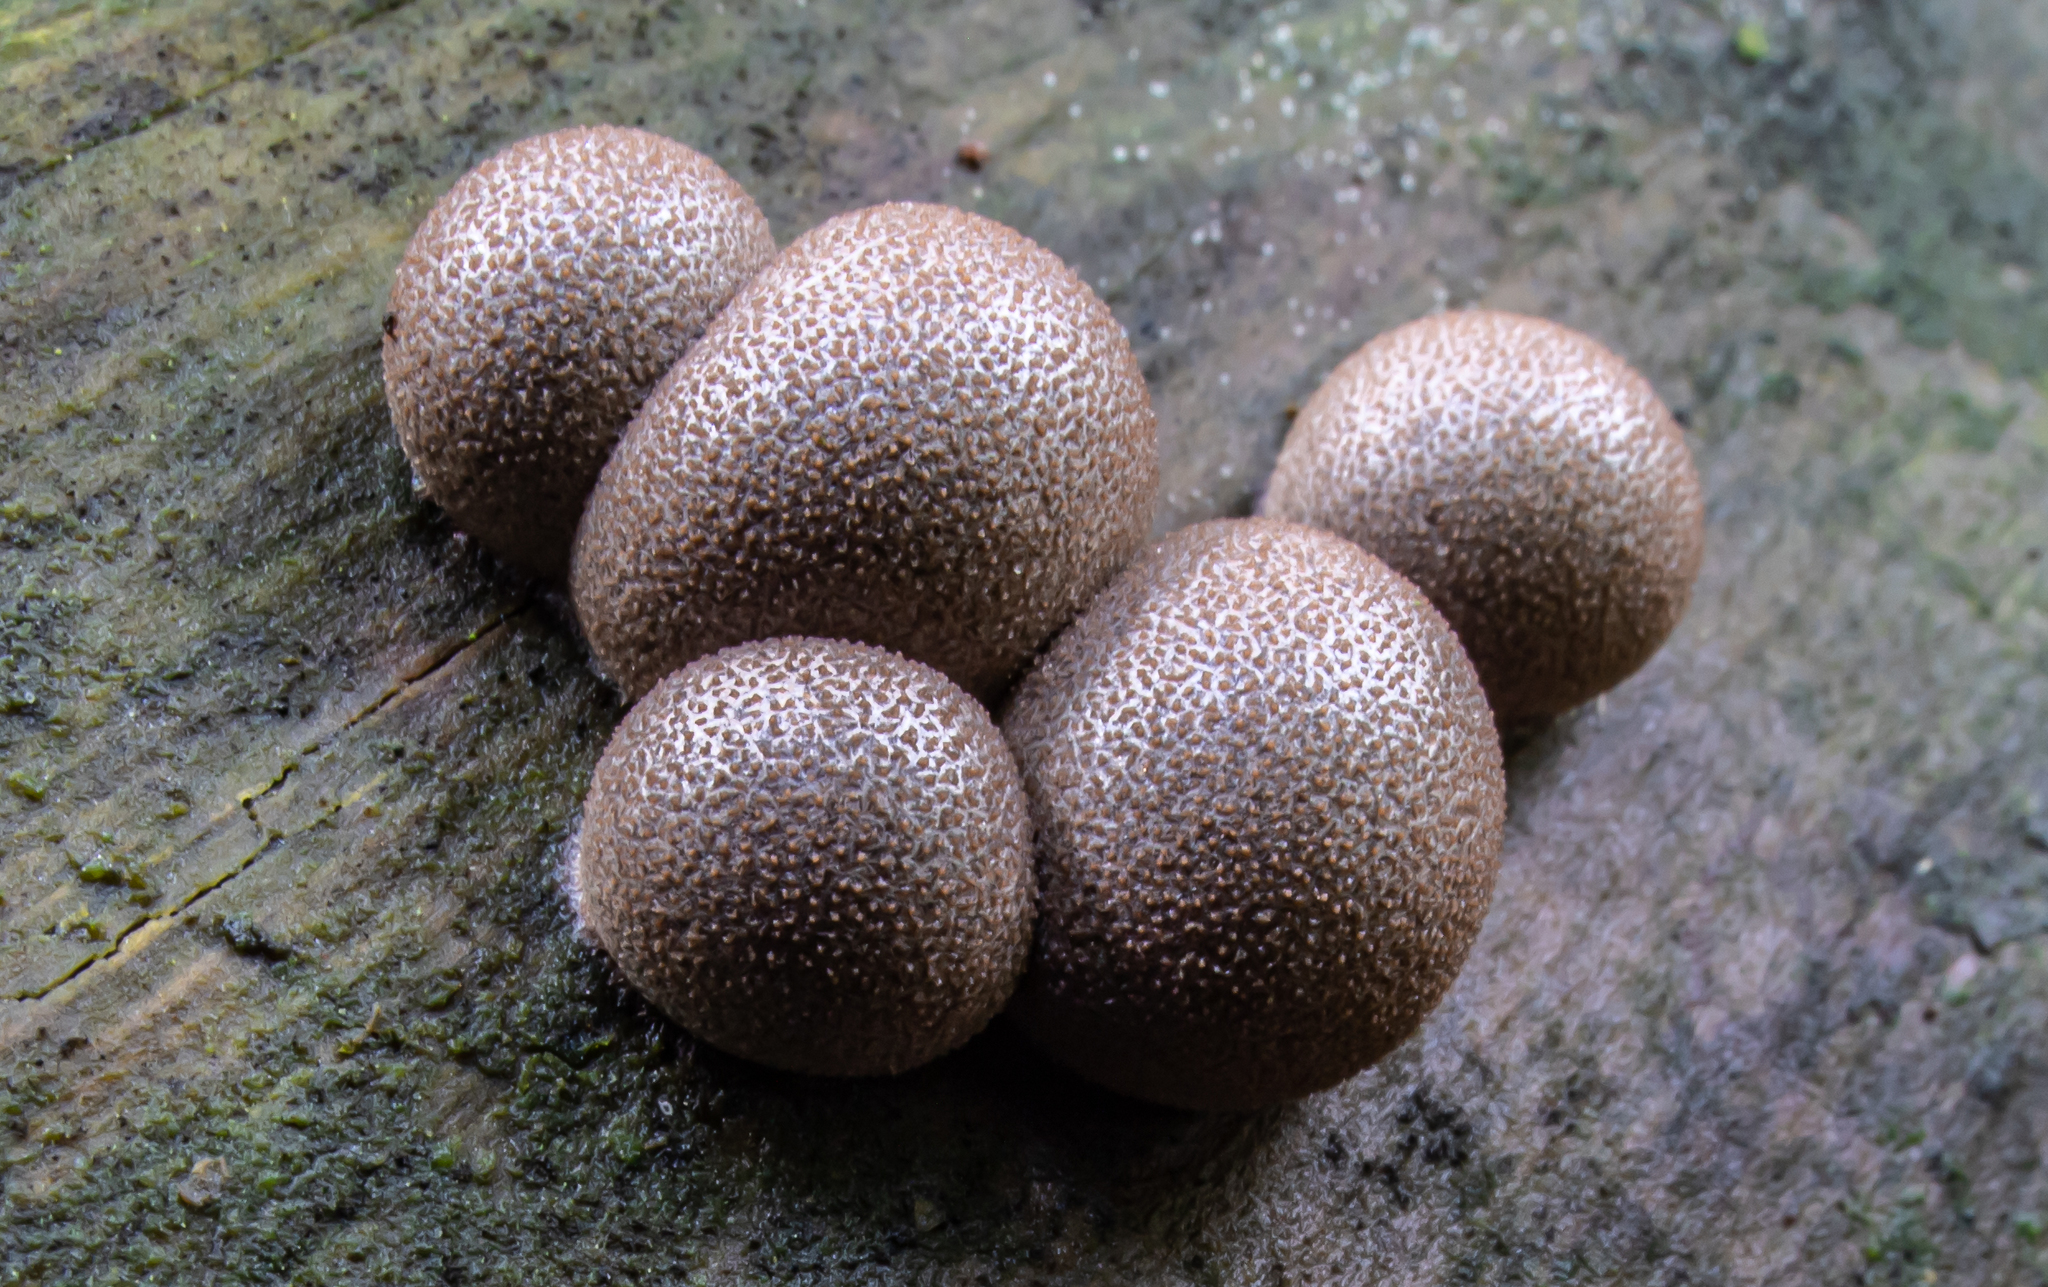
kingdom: Protozoa
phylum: Mycetozoa
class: Myxomycetes
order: Cribrariales
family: Tubiferaceae
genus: Lycogala
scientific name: Lycogala epidendrum
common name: Wolf's milk
